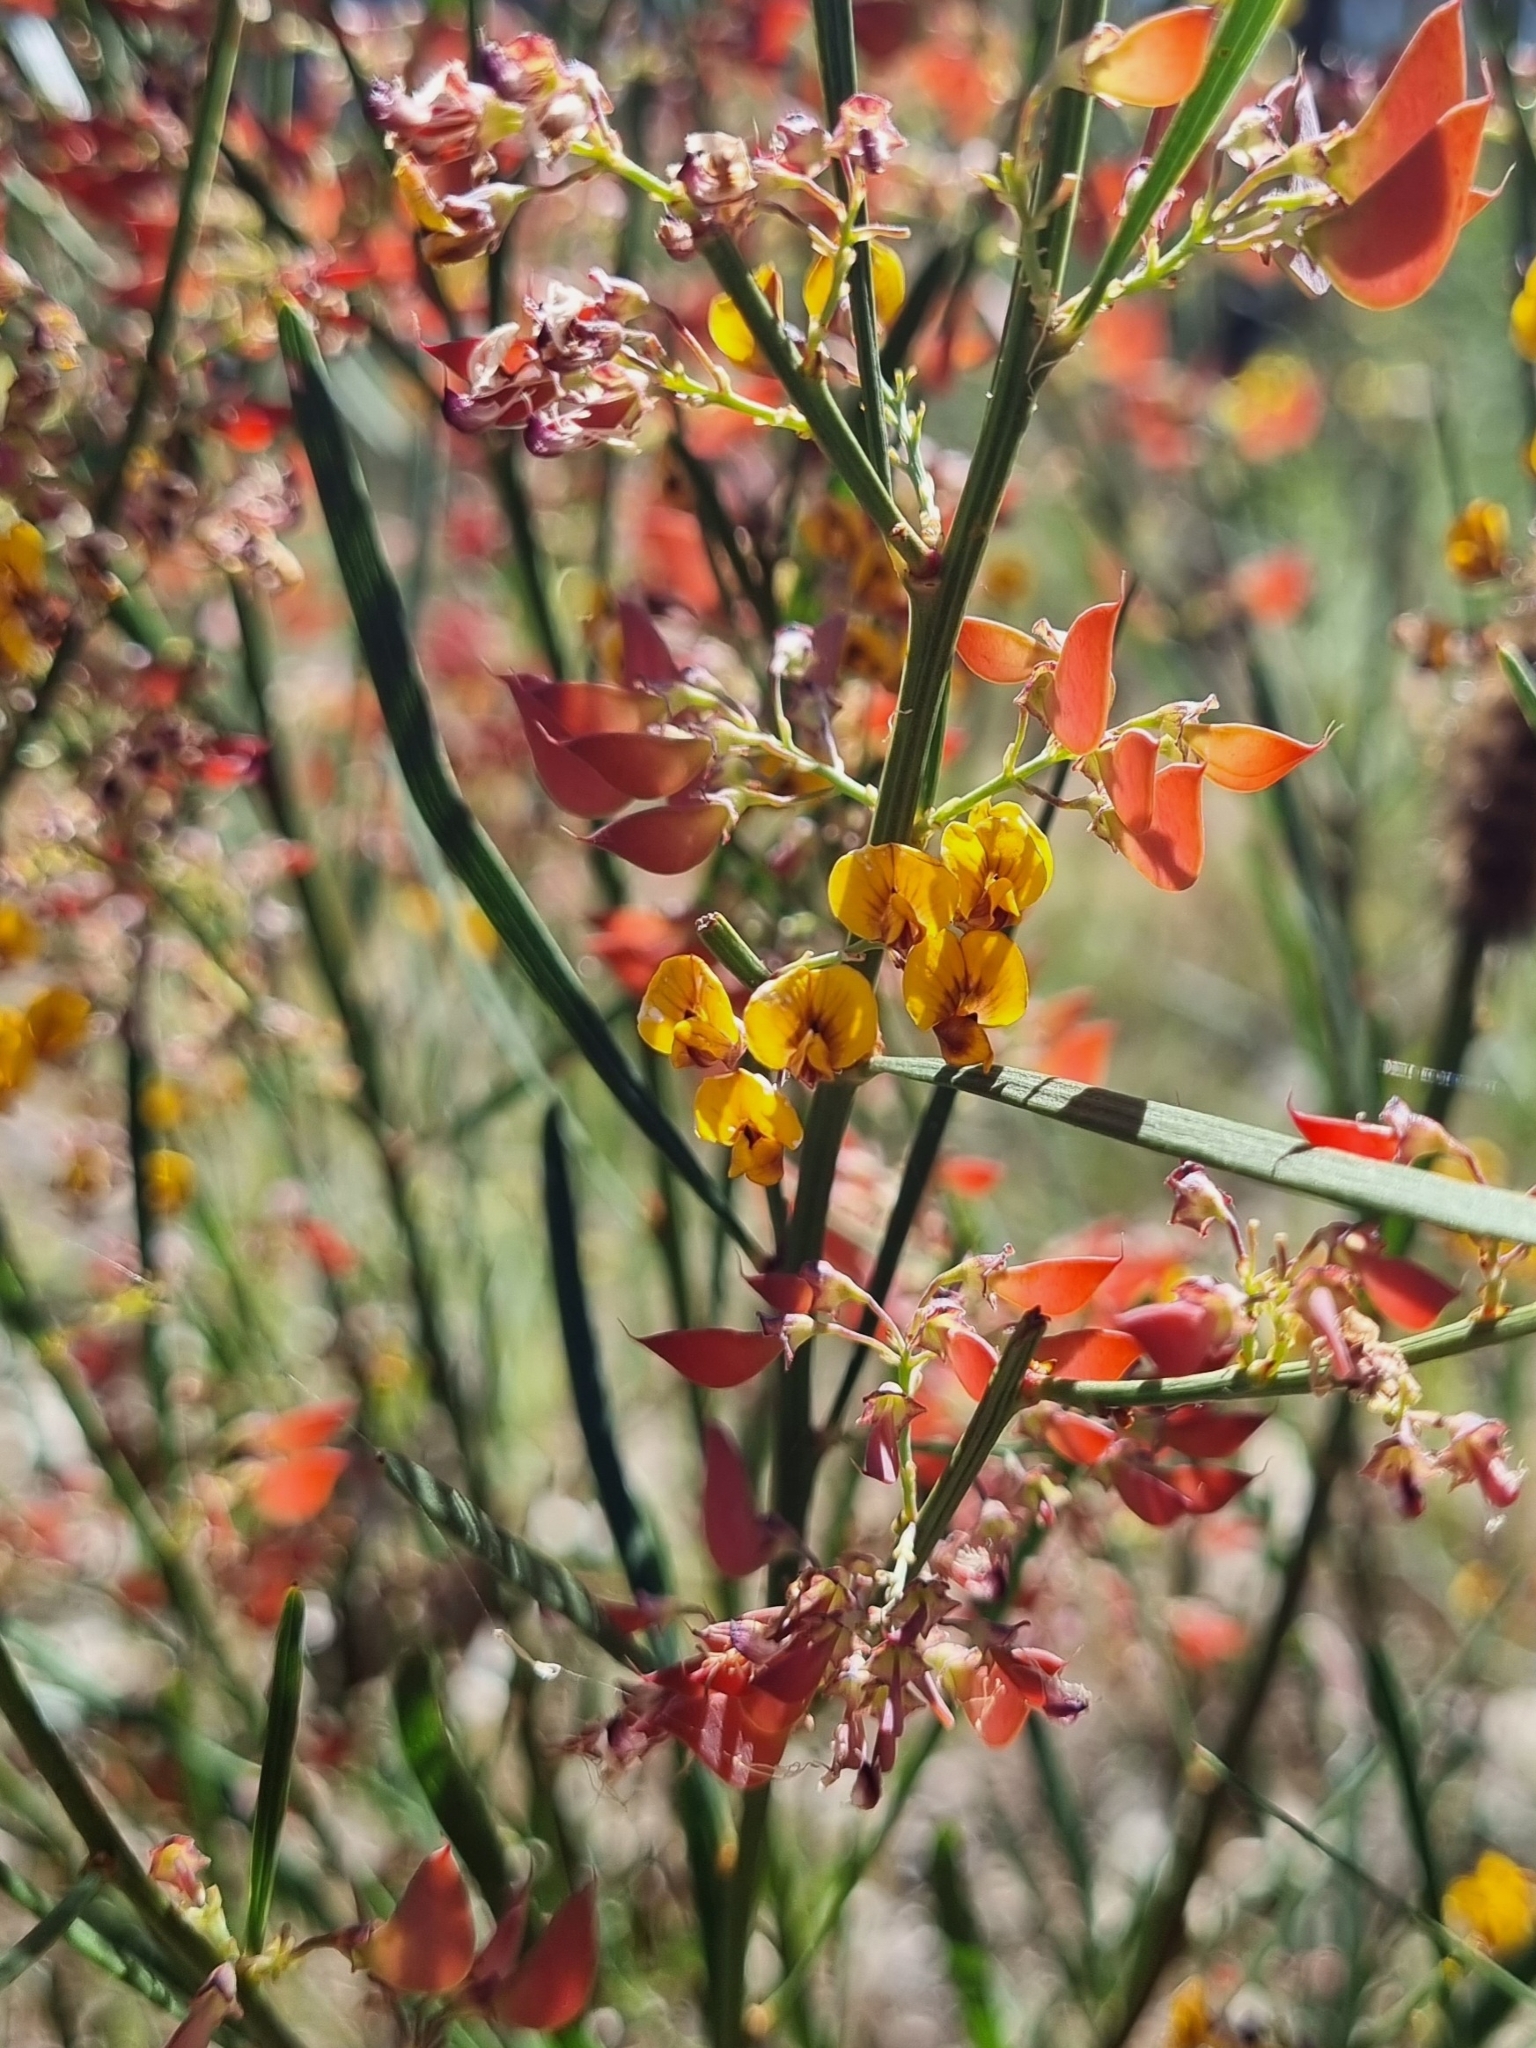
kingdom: Plantae
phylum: Tracheophyta
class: Magnoliopsida
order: Fabales
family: Fabaceae
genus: Daviesia
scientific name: Daviesia leptophylla
